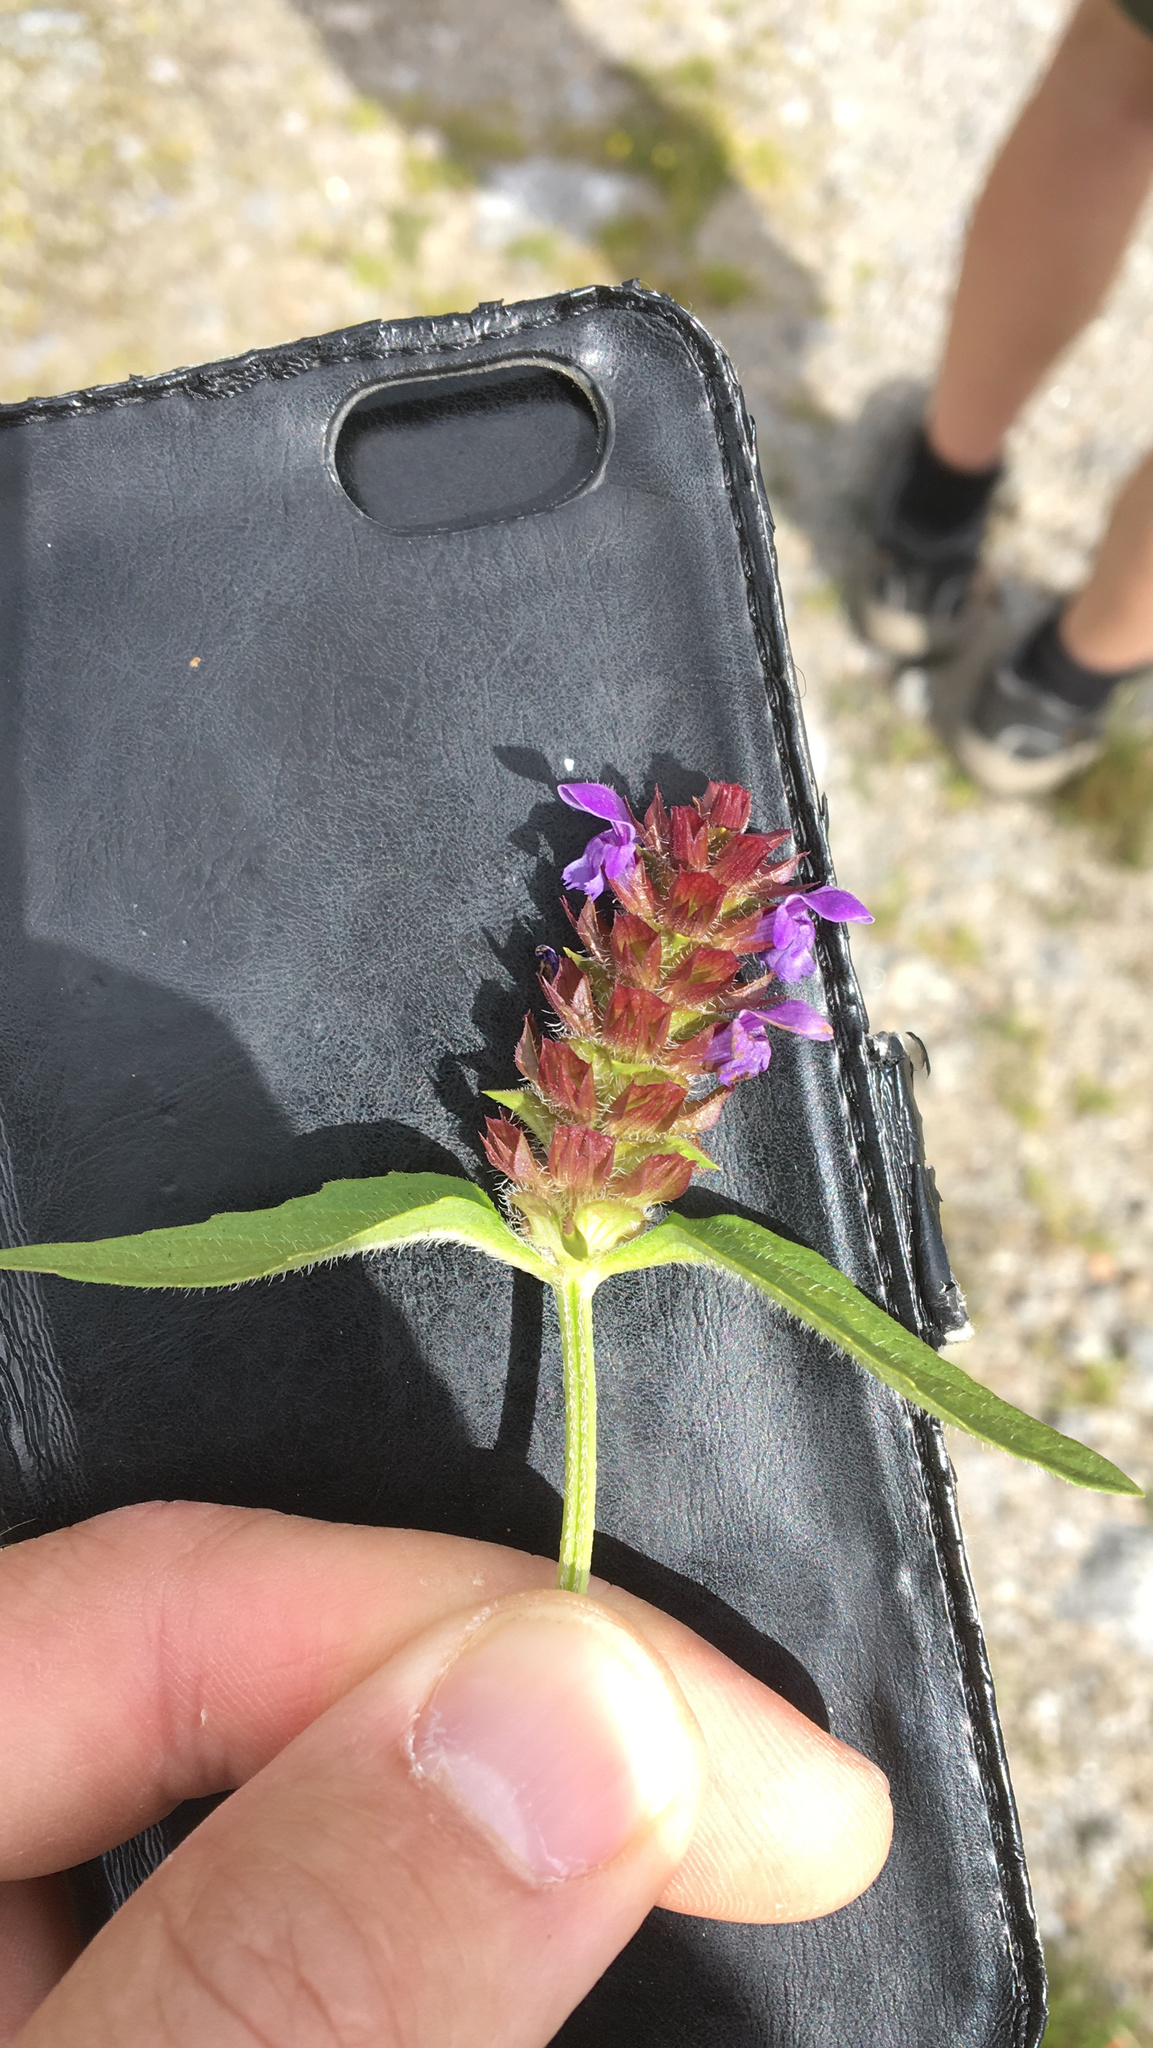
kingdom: Plantae
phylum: Tracheophyta
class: Magnoliopsida
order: Lamiales
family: Lamiaceae
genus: Prunella
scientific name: Prunella vulgaris
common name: Heal-all
